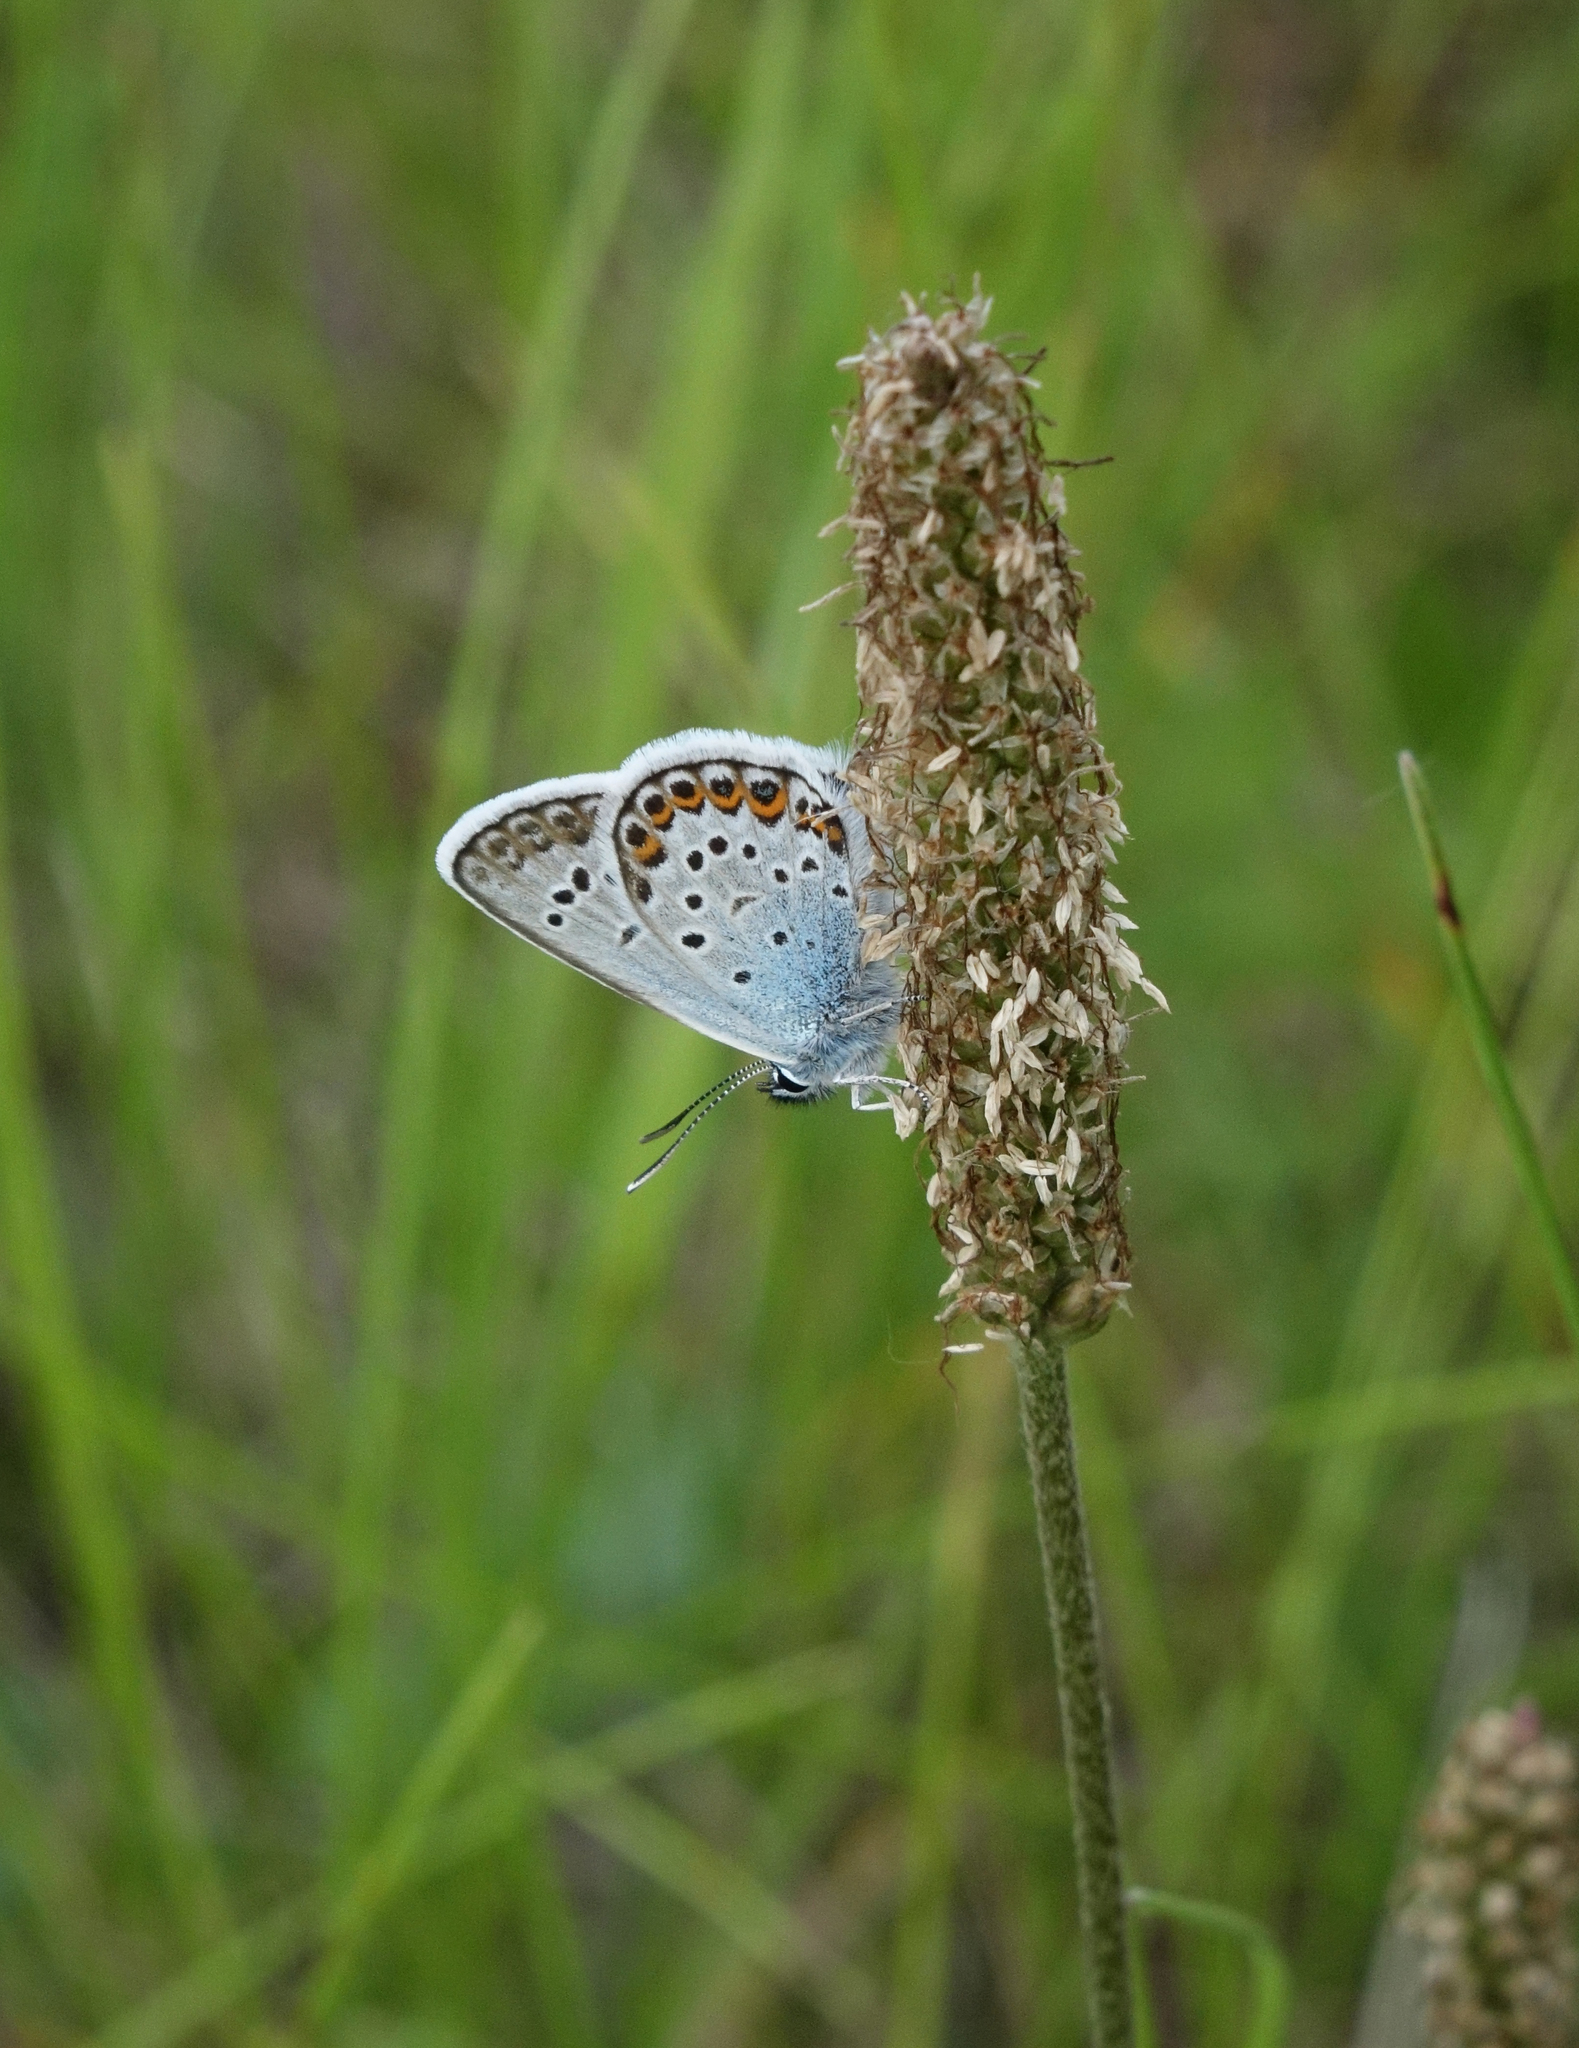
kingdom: Animalia
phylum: Arthropoda
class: Insecta
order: Lepidoptera
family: Lycaenidae
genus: Plebejus
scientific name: Plebejus argus
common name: Silver-studded blue
